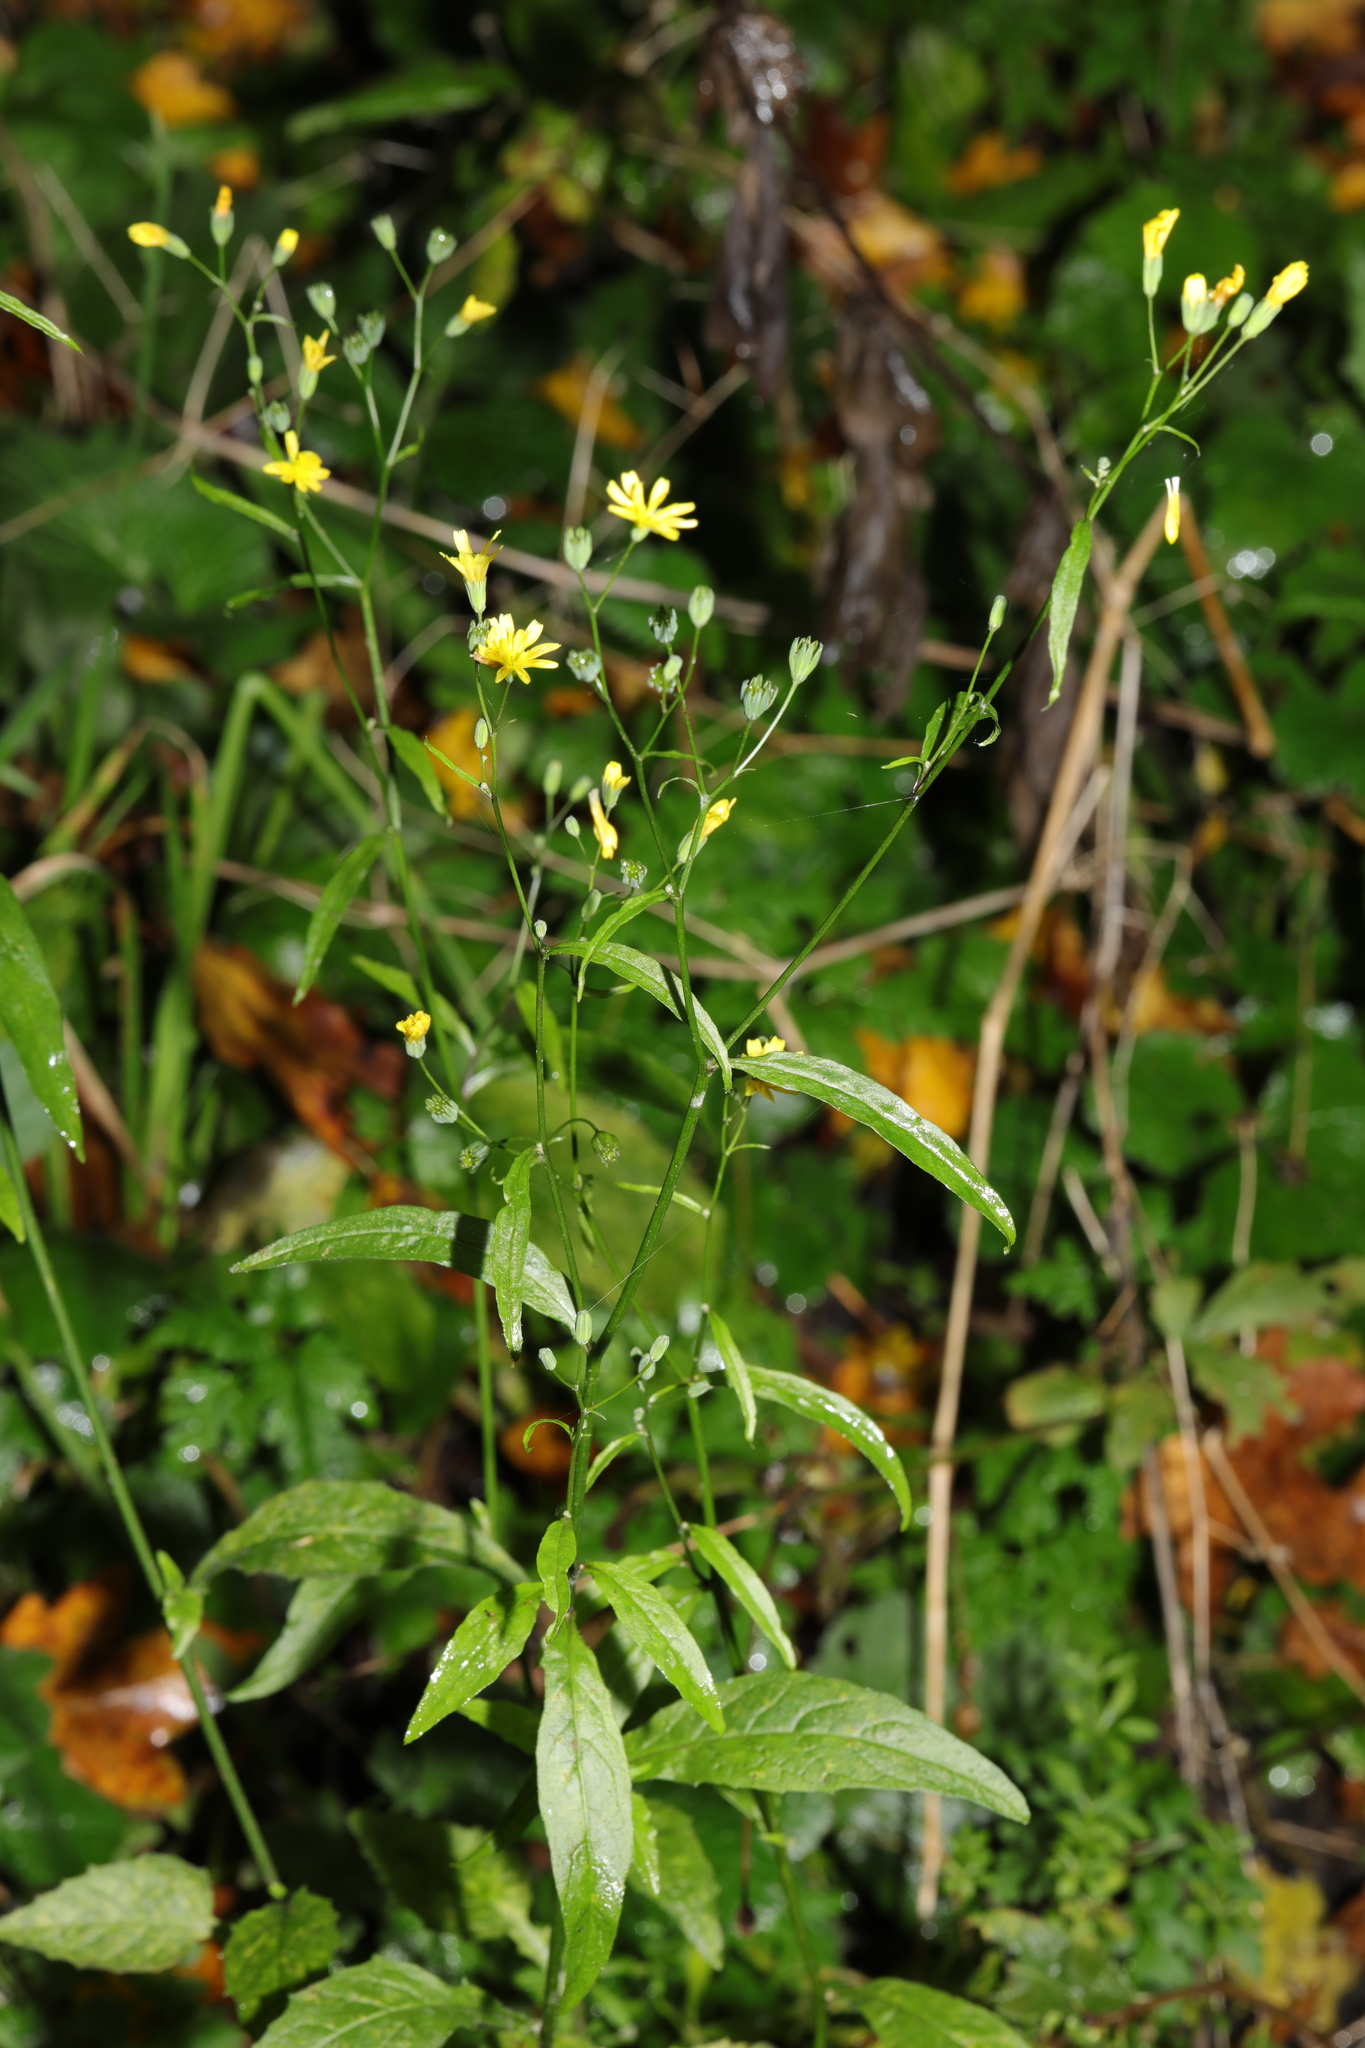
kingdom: Plantae
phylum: Tracheophyta
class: Magnoliopsida
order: Asterales
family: Asteraceae
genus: Lapsana
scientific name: Lapsana communis
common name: Nipplewort
